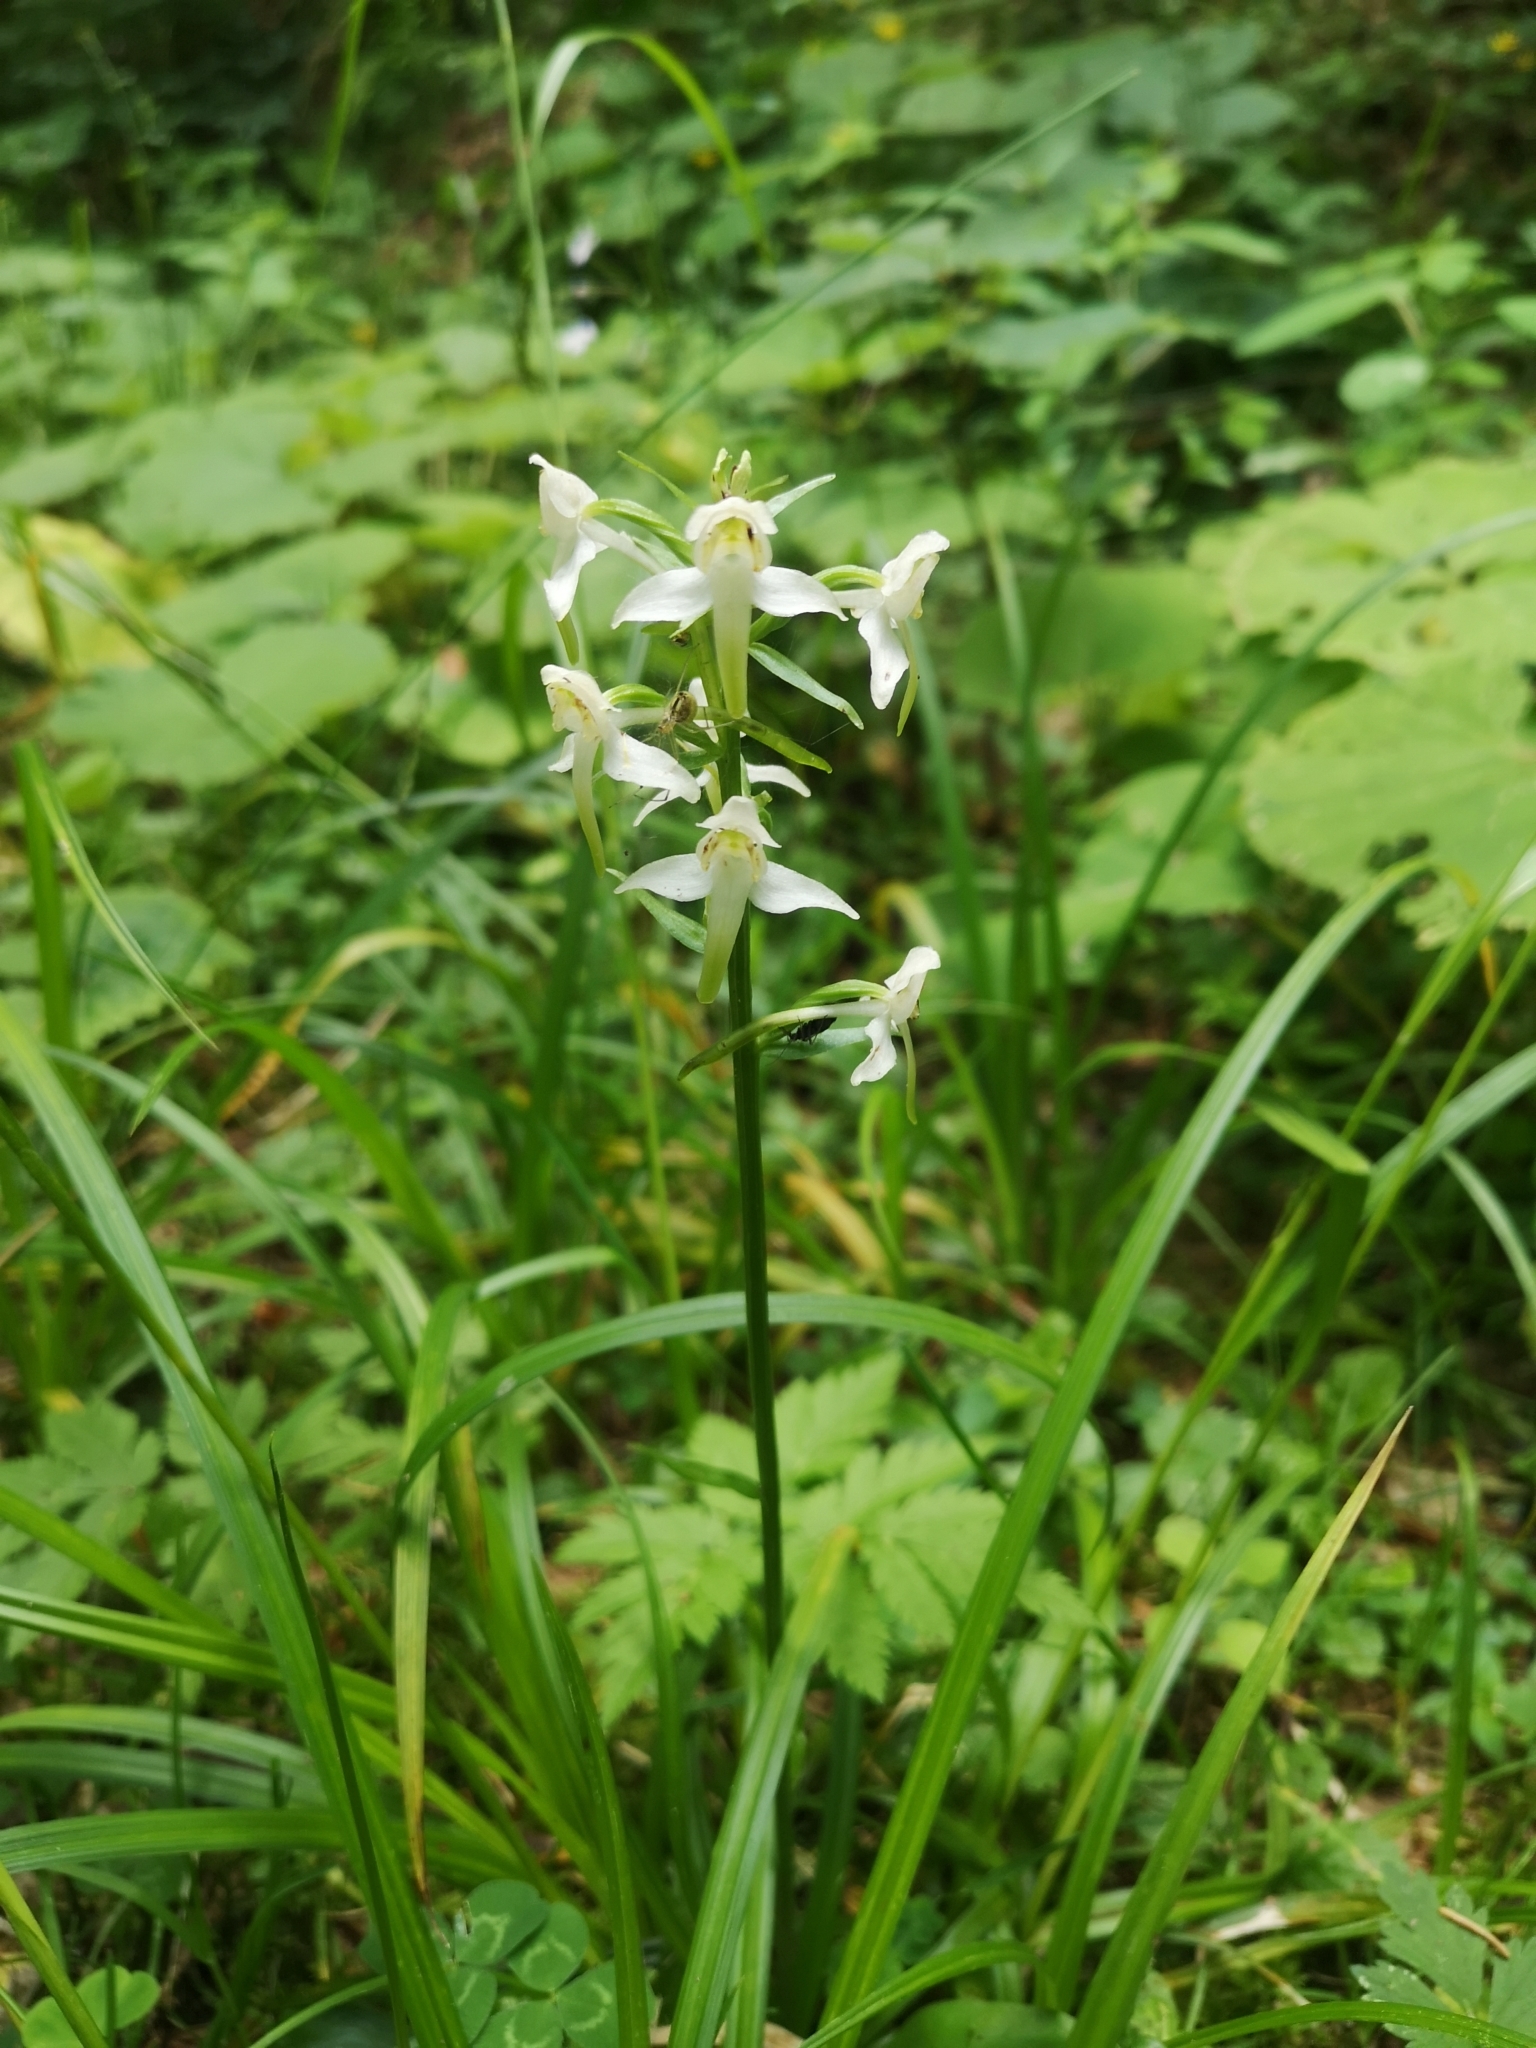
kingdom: Plantae
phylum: Tracheophyta
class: Liliopsida
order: Asparagales
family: Orchidaceae
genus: Platanthera
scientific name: Platanthera chlorantha
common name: Greater butterfly-orchid
